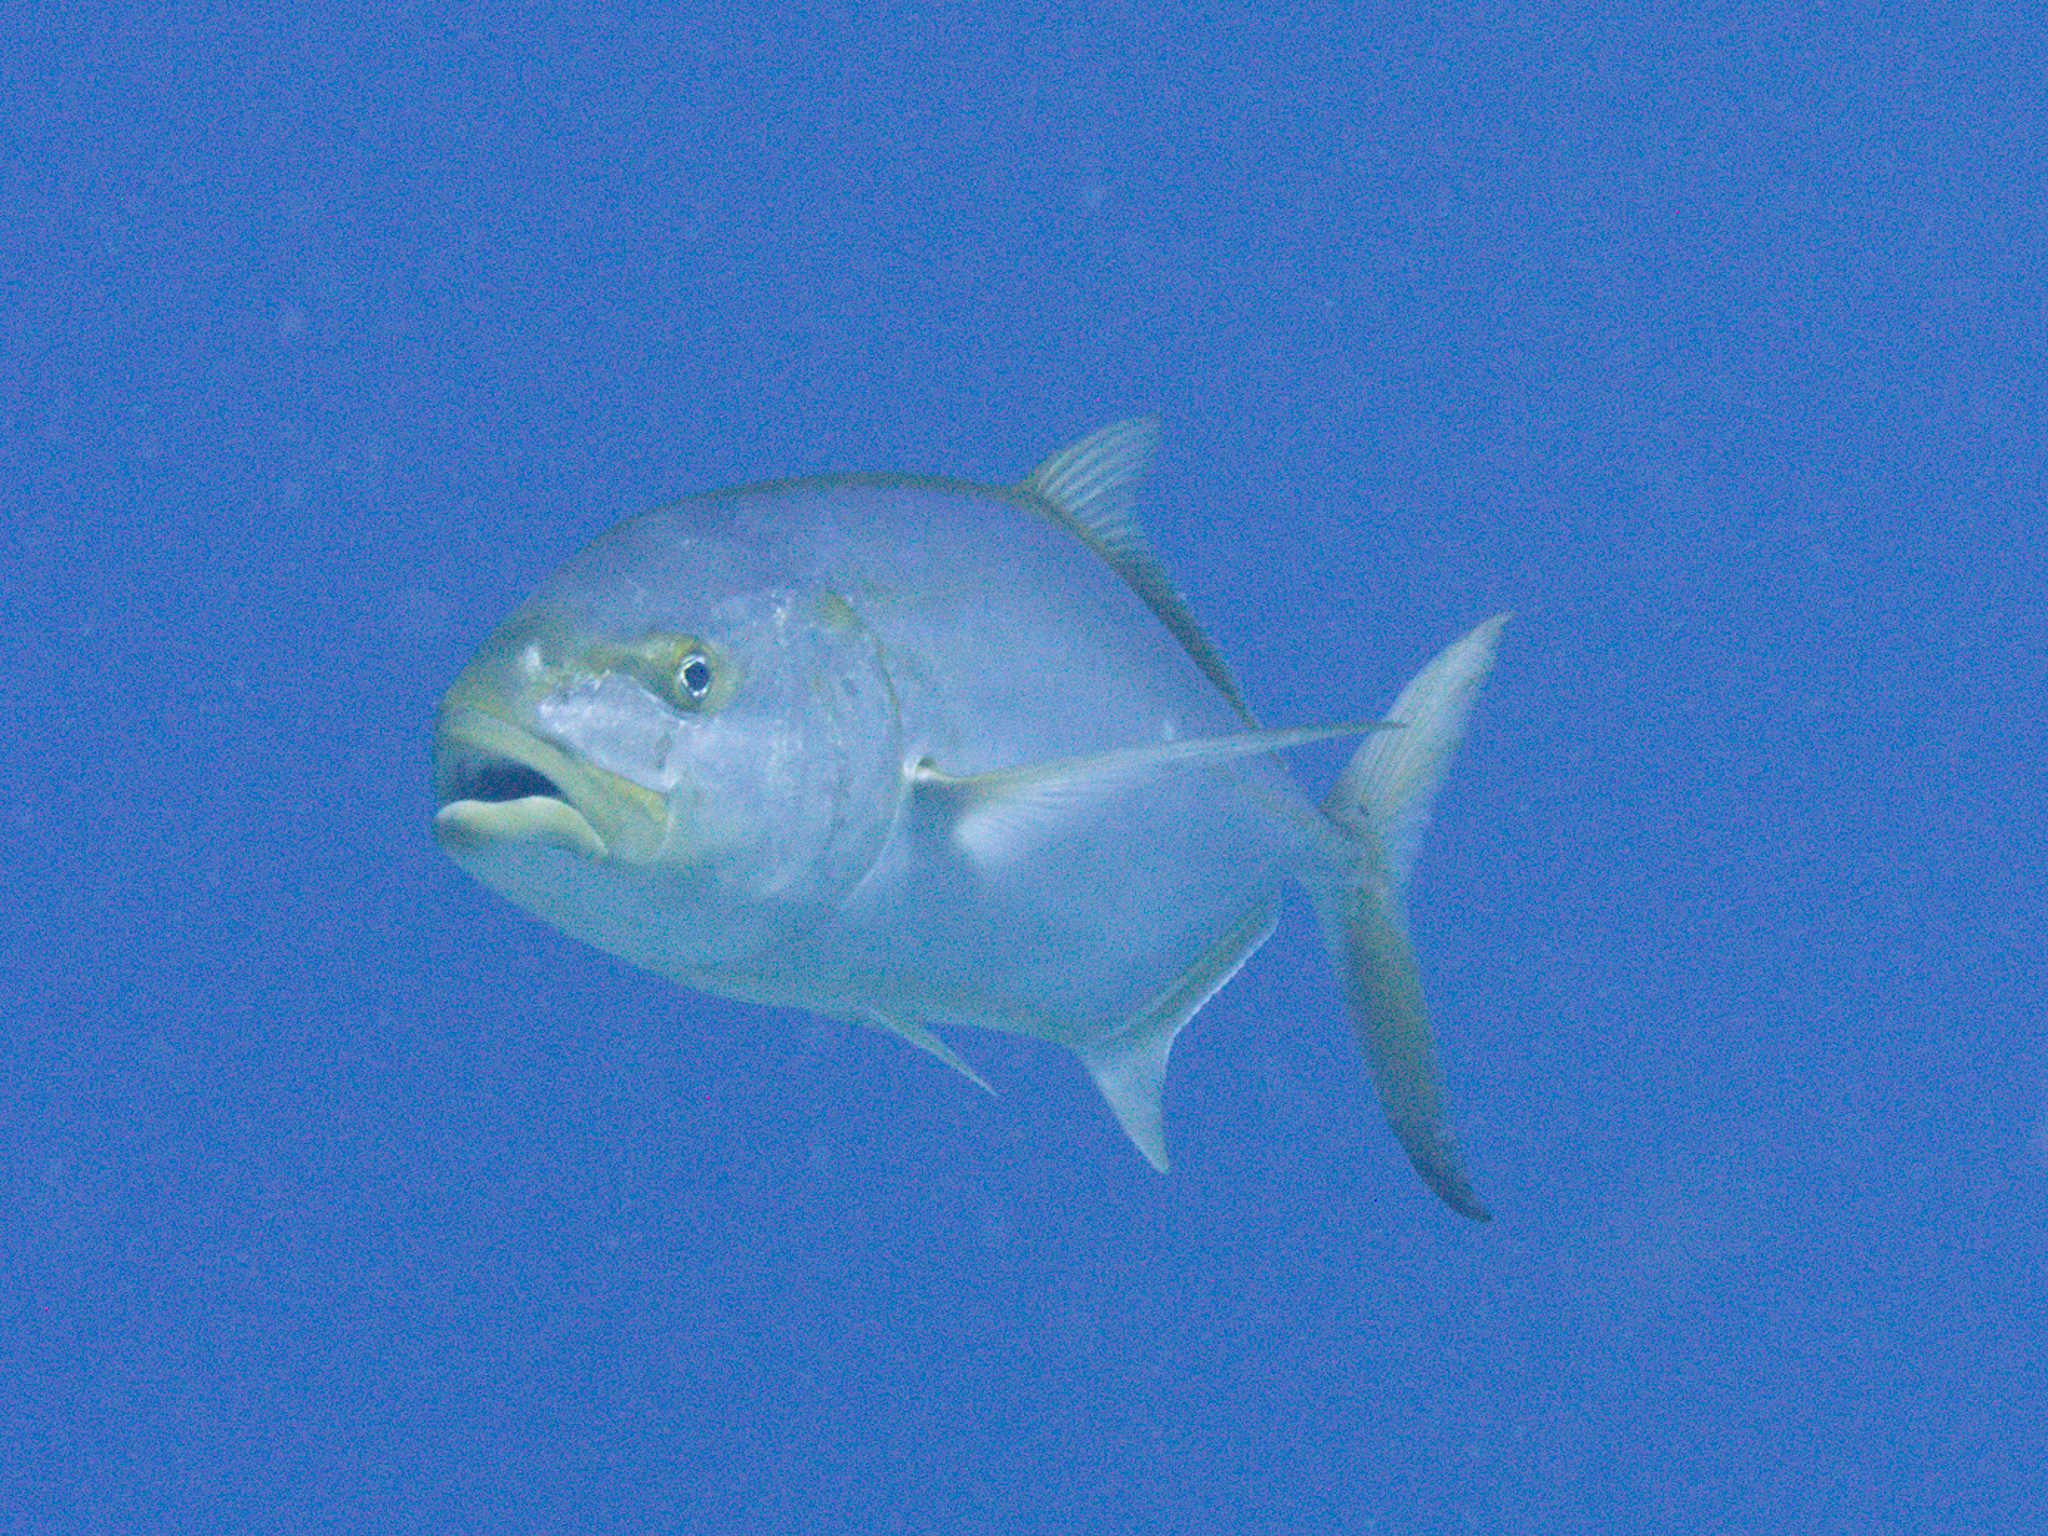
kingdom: Animalia
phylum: Chordata
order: Perciformes
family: Carangidae
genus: Carangoides
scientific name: Carangoides bartholomaei
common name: Yellow jack
